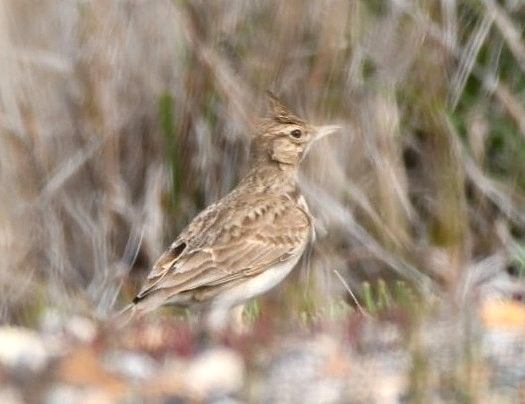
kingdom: Animalia
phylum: Chordata
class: Aves
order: Passeriformes
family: Alaudidae
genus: Galerida
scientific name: Galerida cristata
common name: Crested lark
